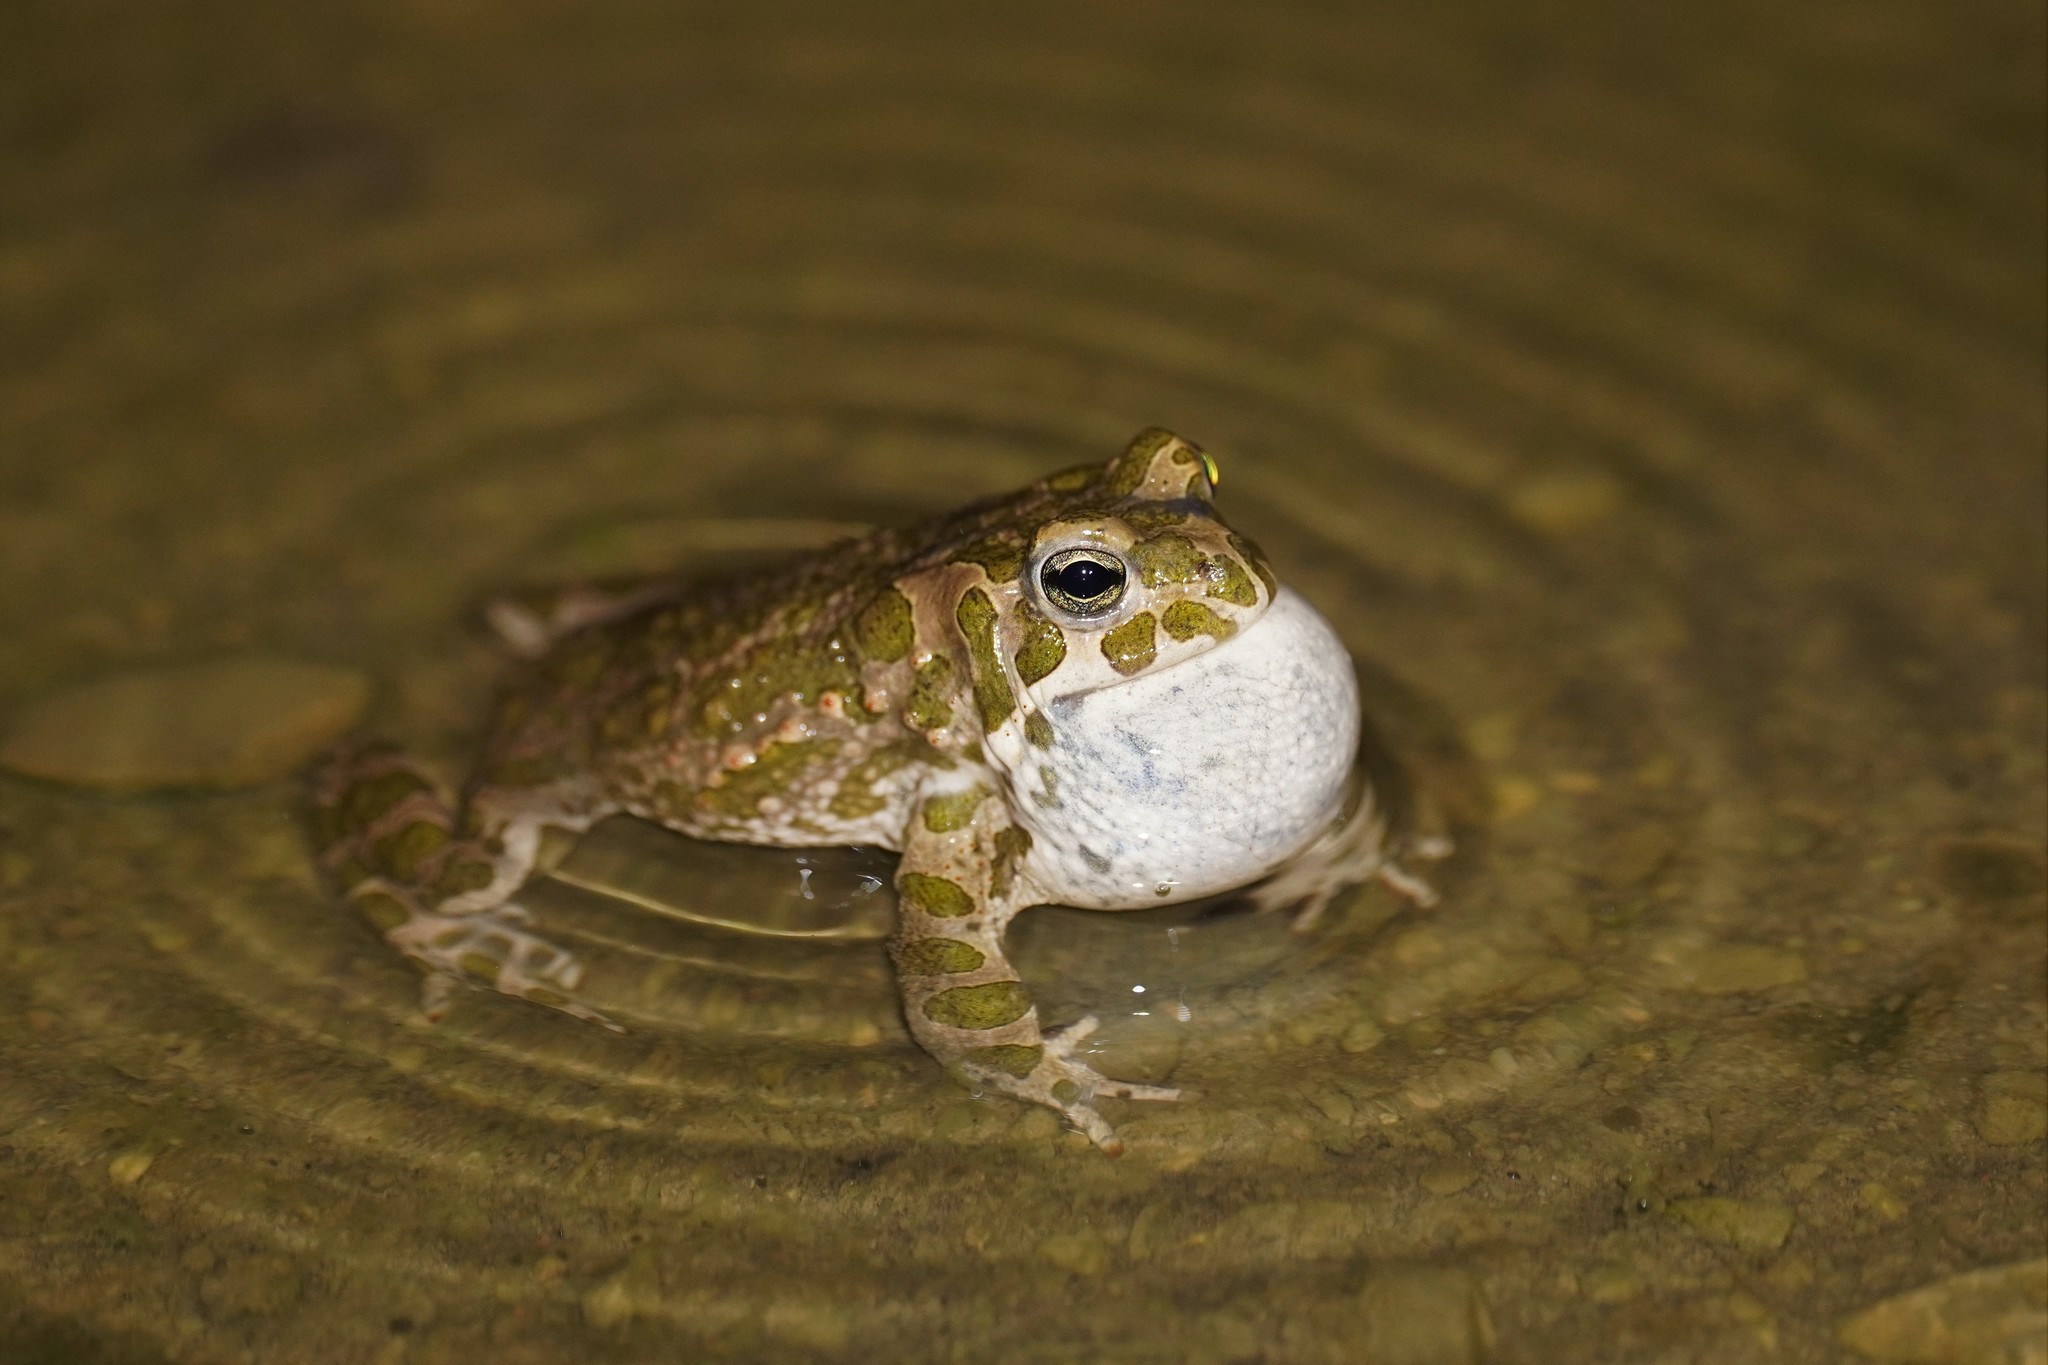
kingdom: Animalia
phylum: Chordata
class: Amphibia
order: Anura
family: Bufonidae
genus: Bufotes
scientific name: Bufotes viridis
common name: European green toad
